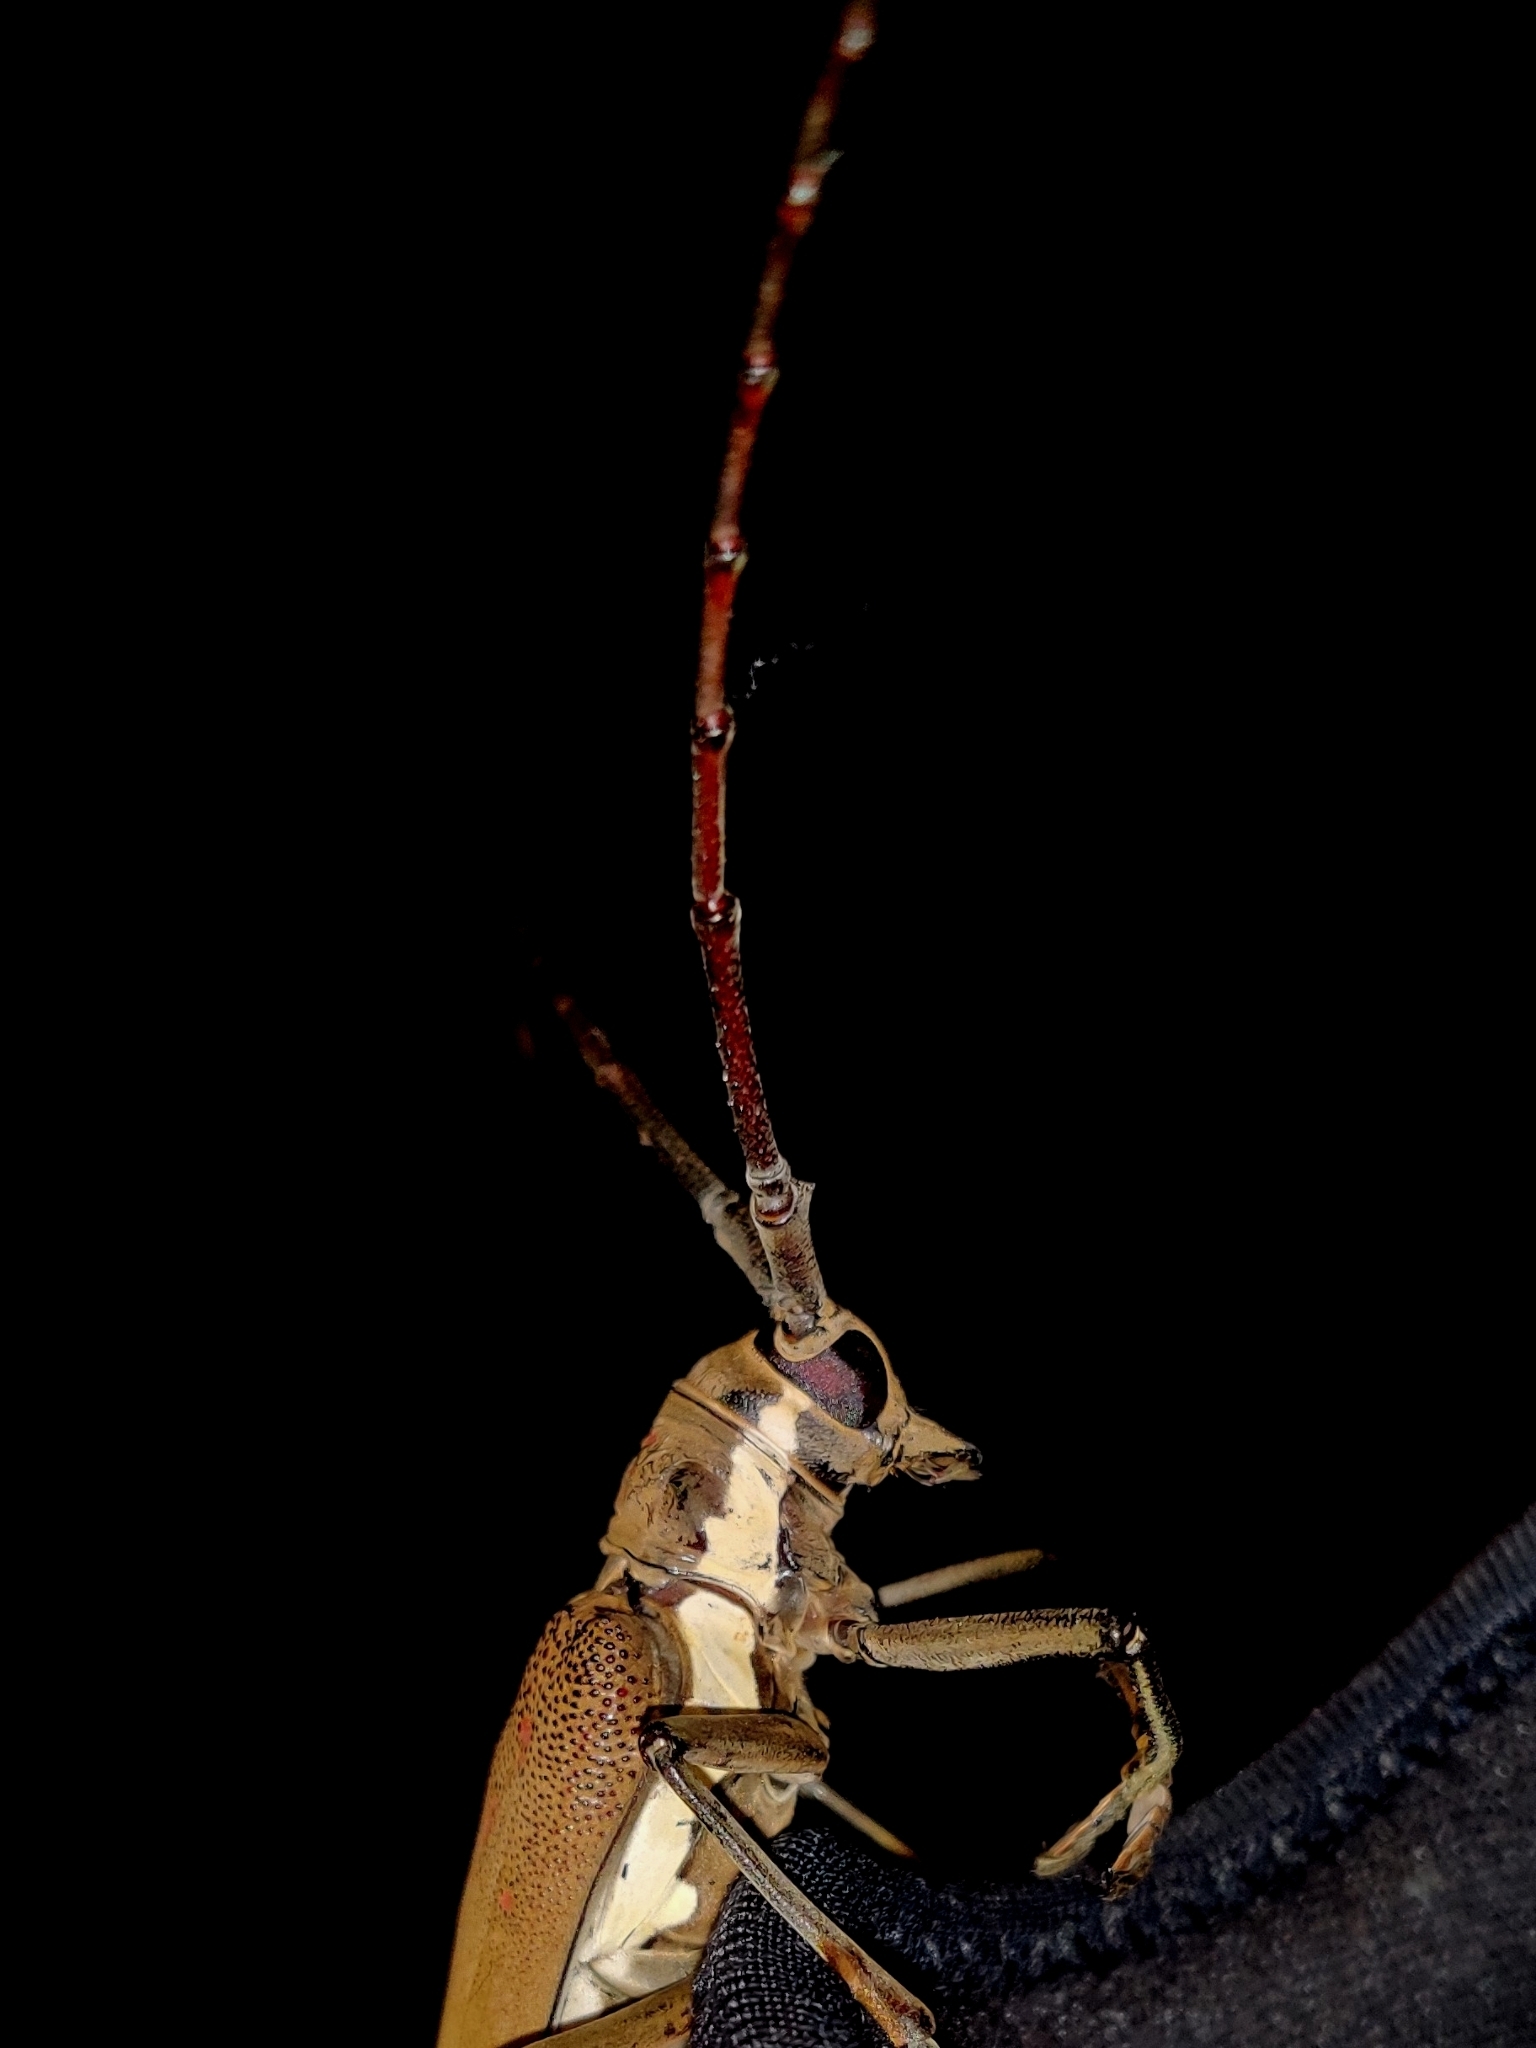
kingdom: Animalia
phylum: Arthropoda
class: Insecta
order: Coleoptera
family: Cerambycidae
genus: Batocera
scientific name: Batocera rufomaculata
